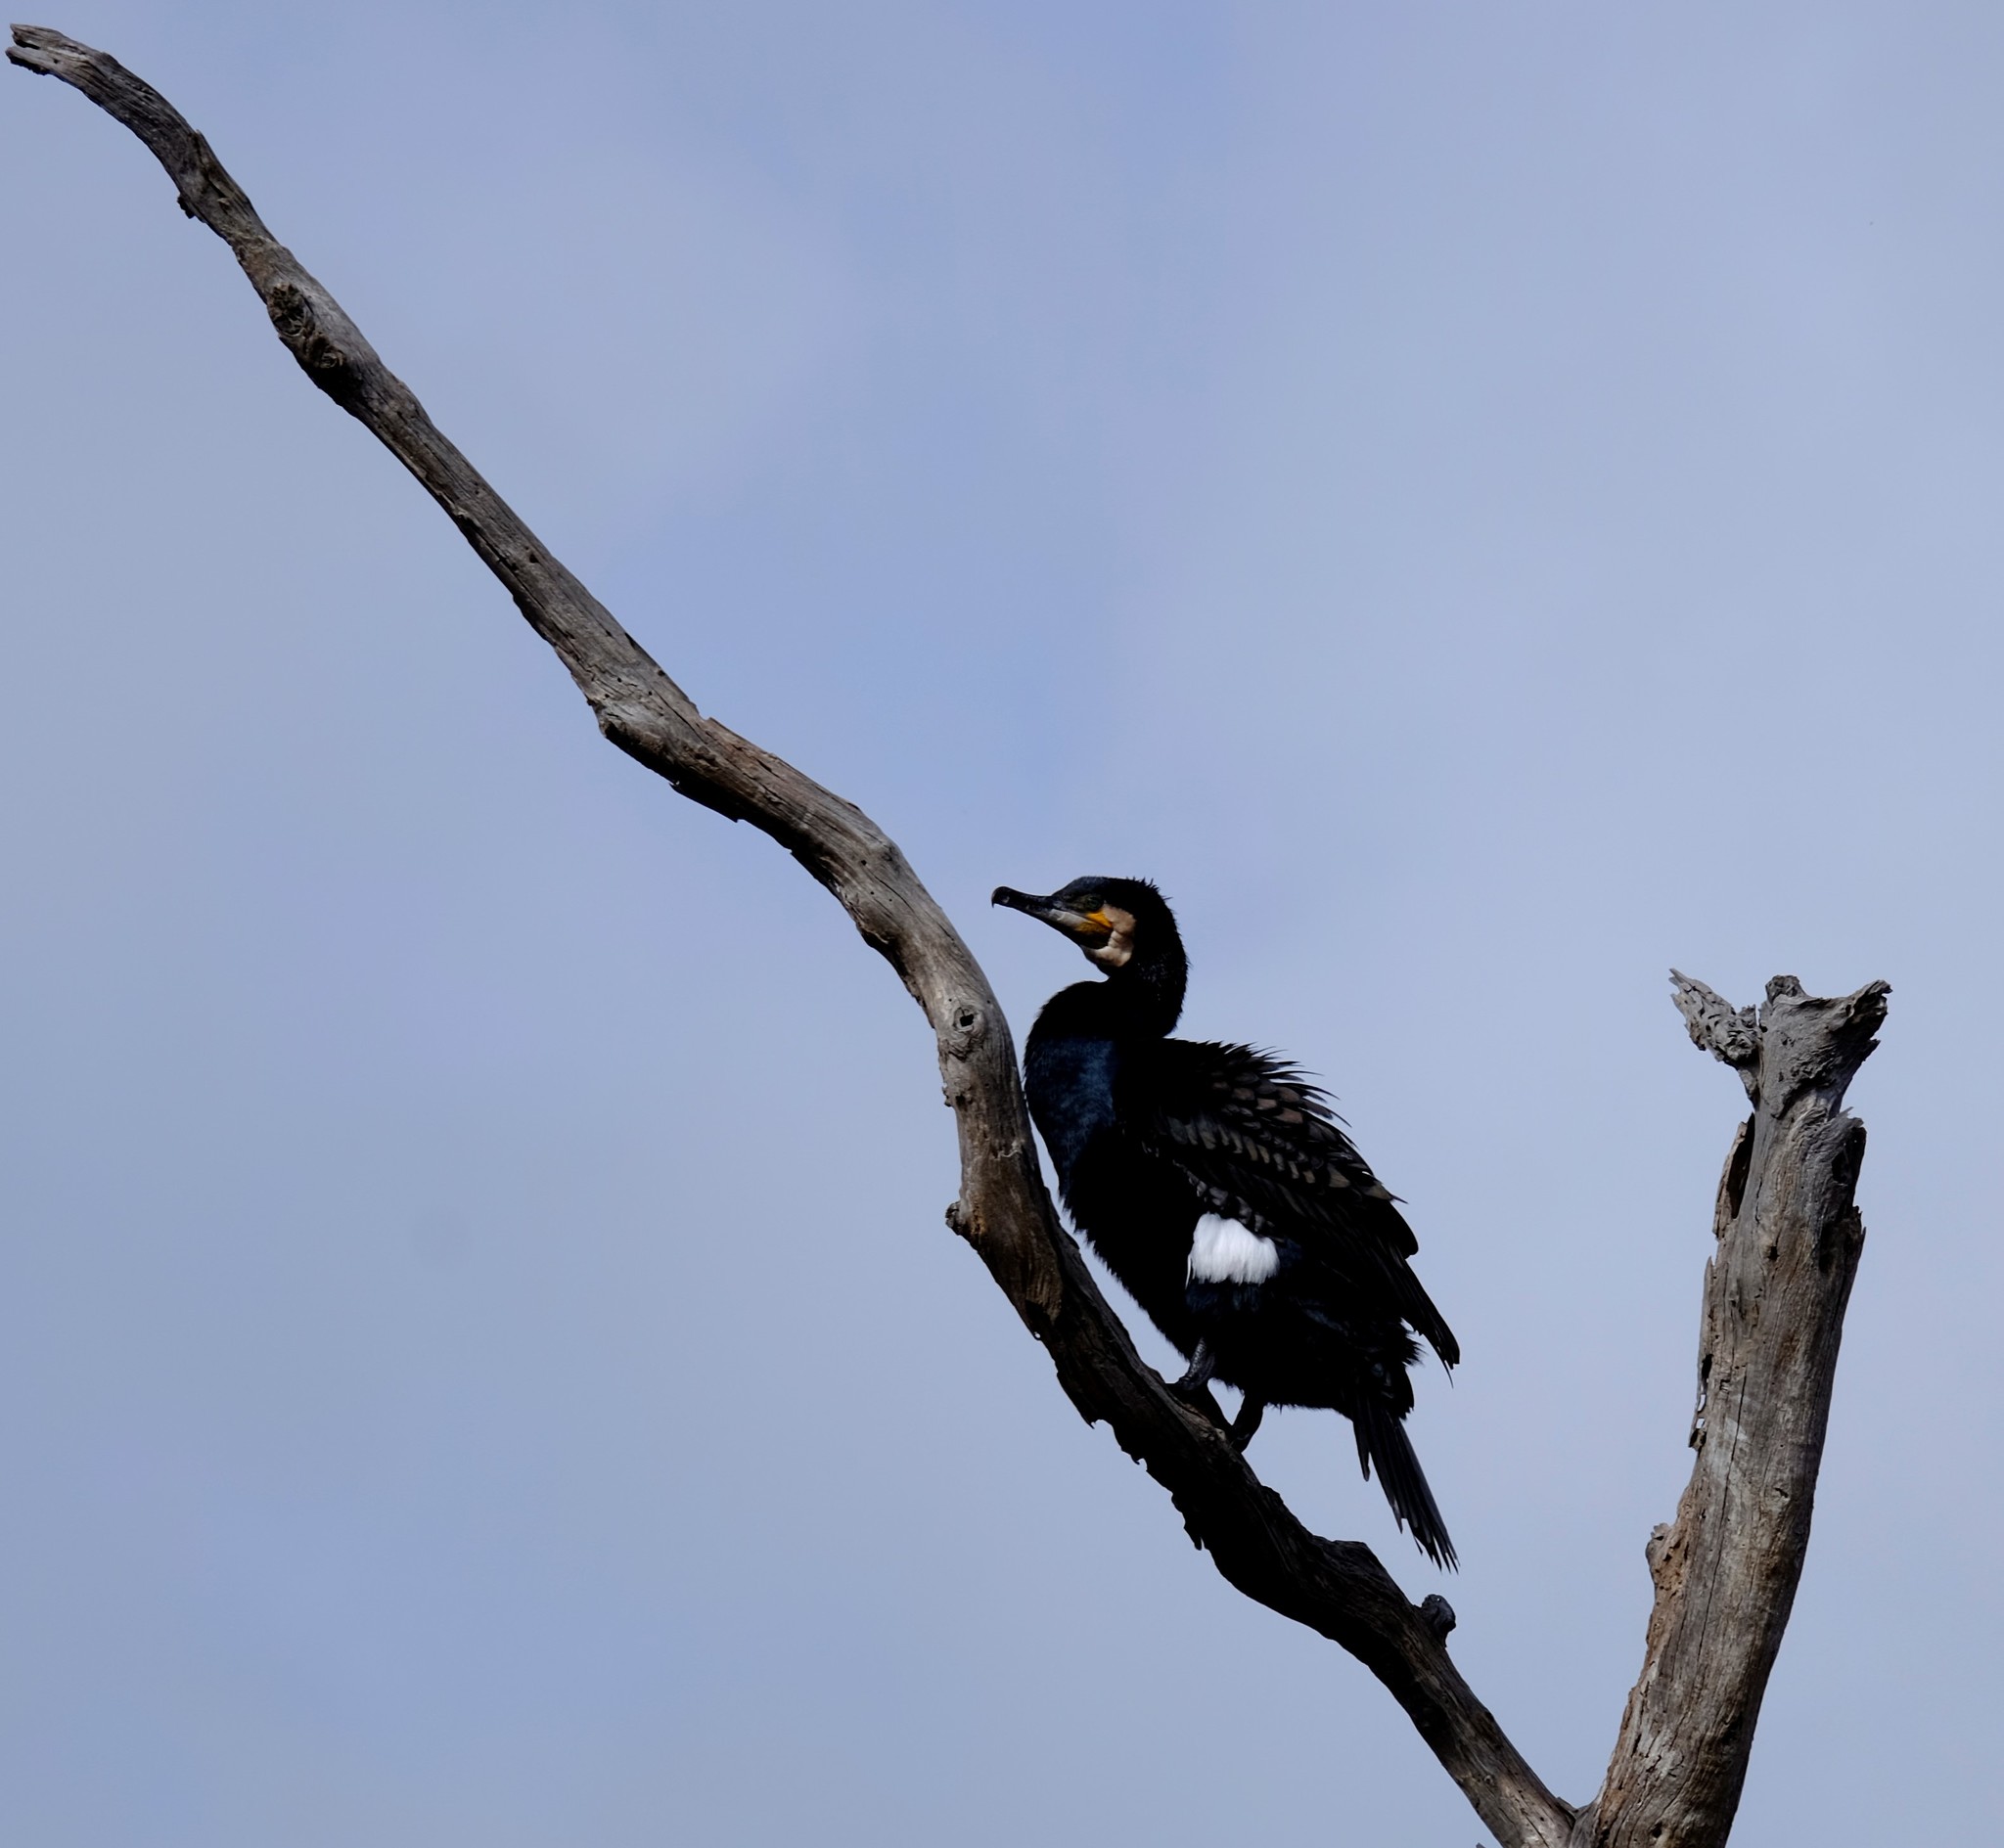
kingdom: Animalia
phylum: Chordata
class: Aves
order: Suliformes
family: Phalacrocoracidae
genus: Phalacrocorax
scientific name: Phalacrocorax carbo
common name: Great cormorant
